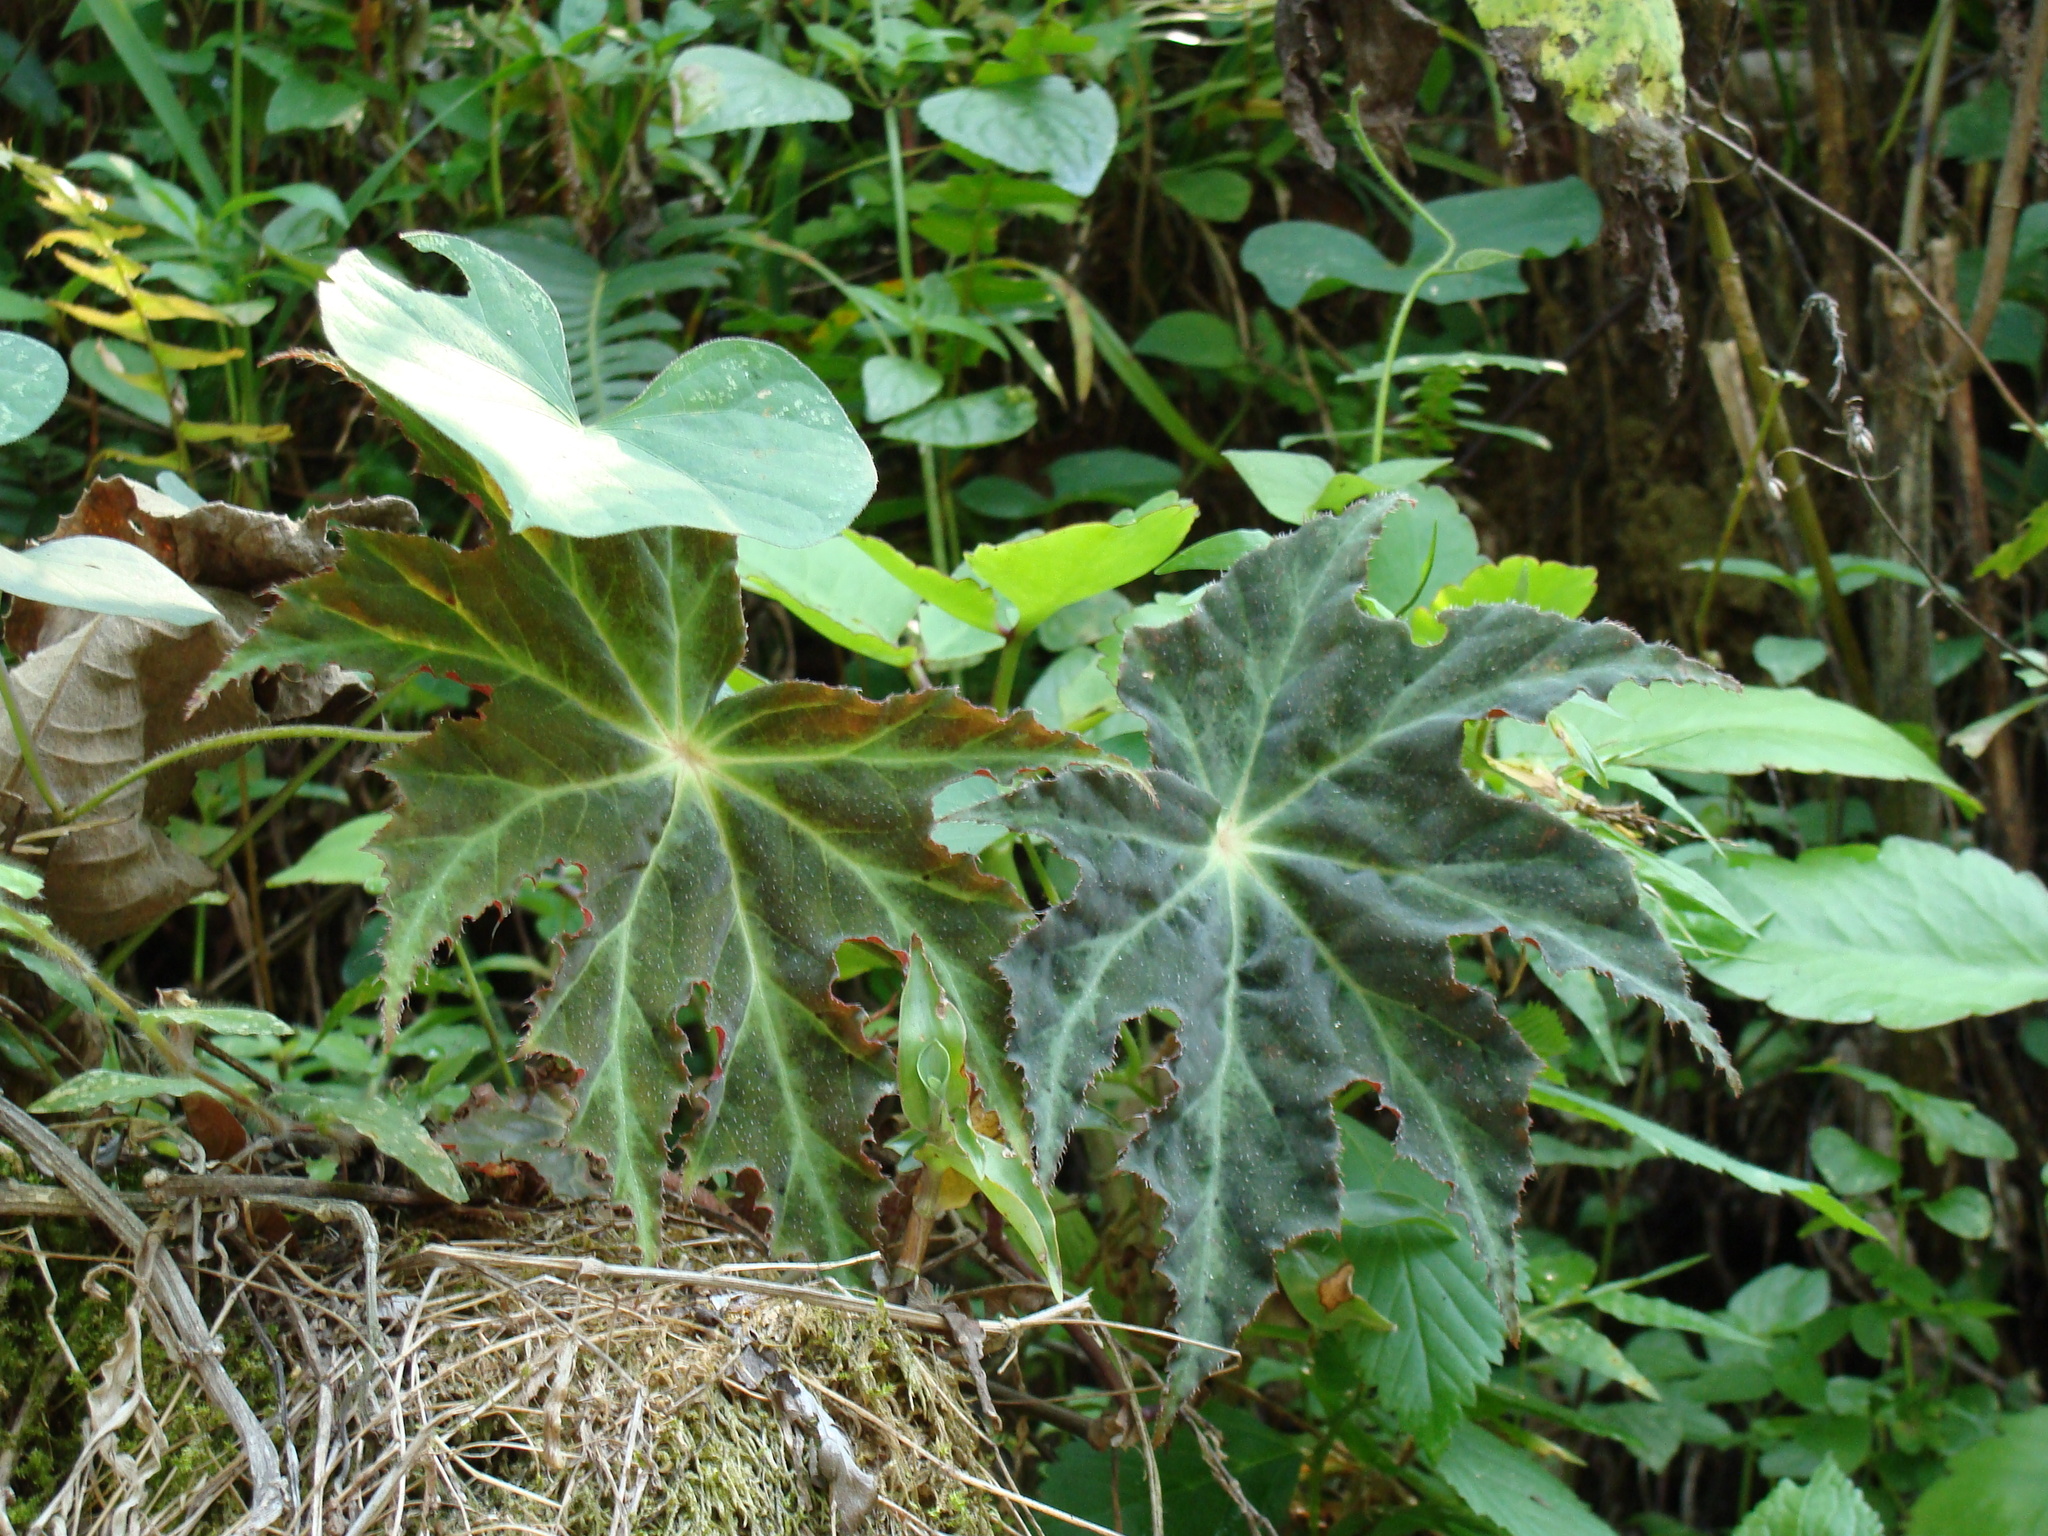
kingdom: Plantae
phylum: Tracheophyta
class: Magnoliopsida
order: Cucurbitales
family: Begoniaceae
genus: Begonia
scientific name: Begonia heracleifolia
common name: Star begonia
